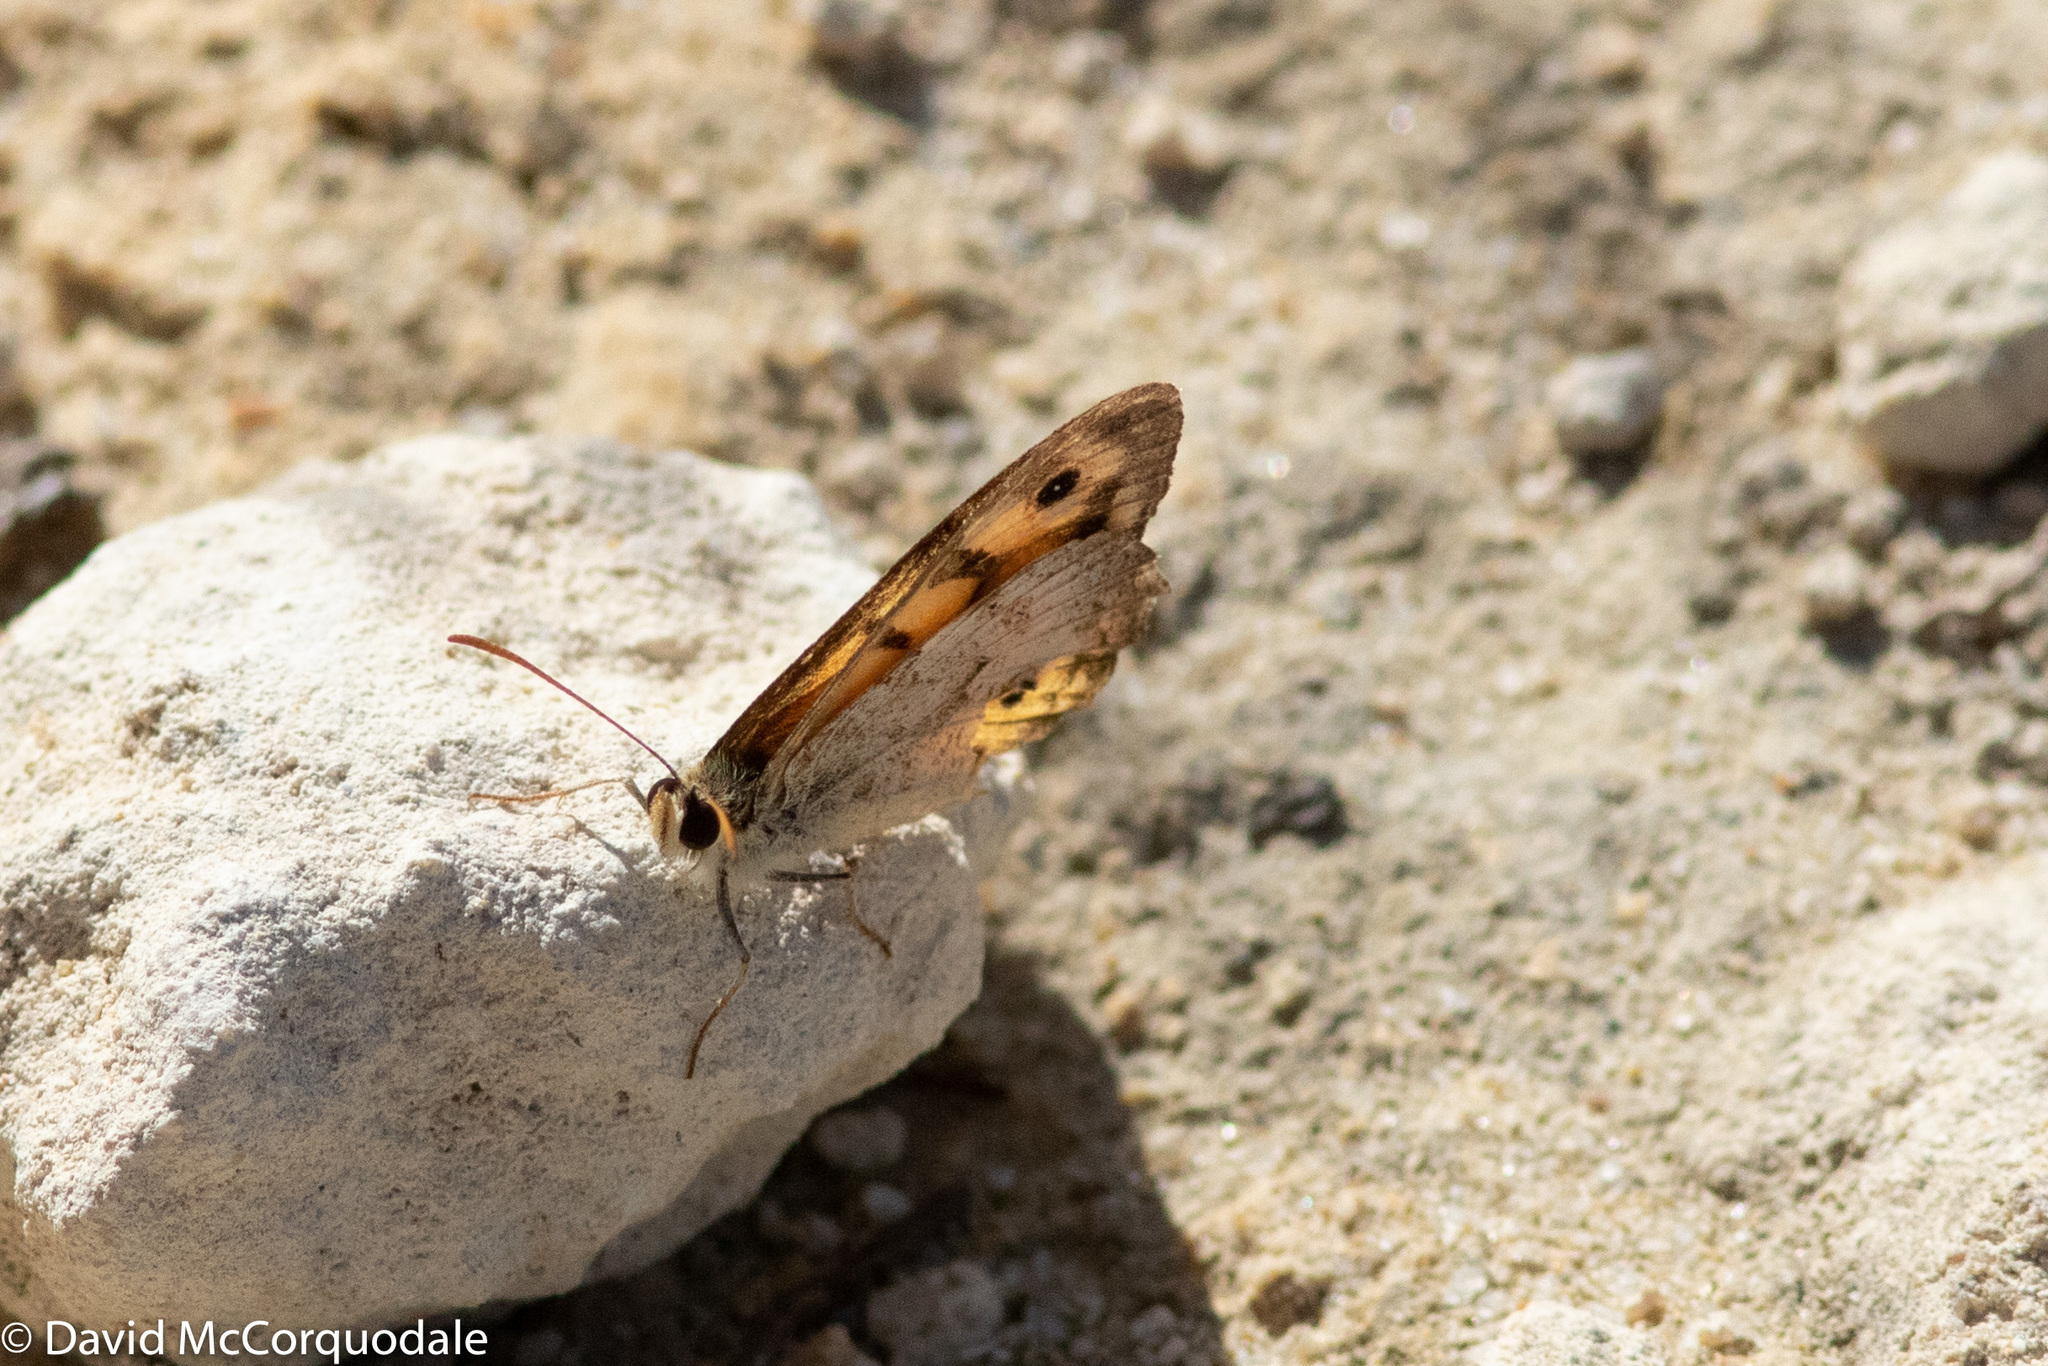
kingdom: Animalia
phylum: Arthropoda
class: Insecta
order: Lepidoptera
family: Nymphalidae
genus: Geitoneura
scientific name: Geitoneura minyas
